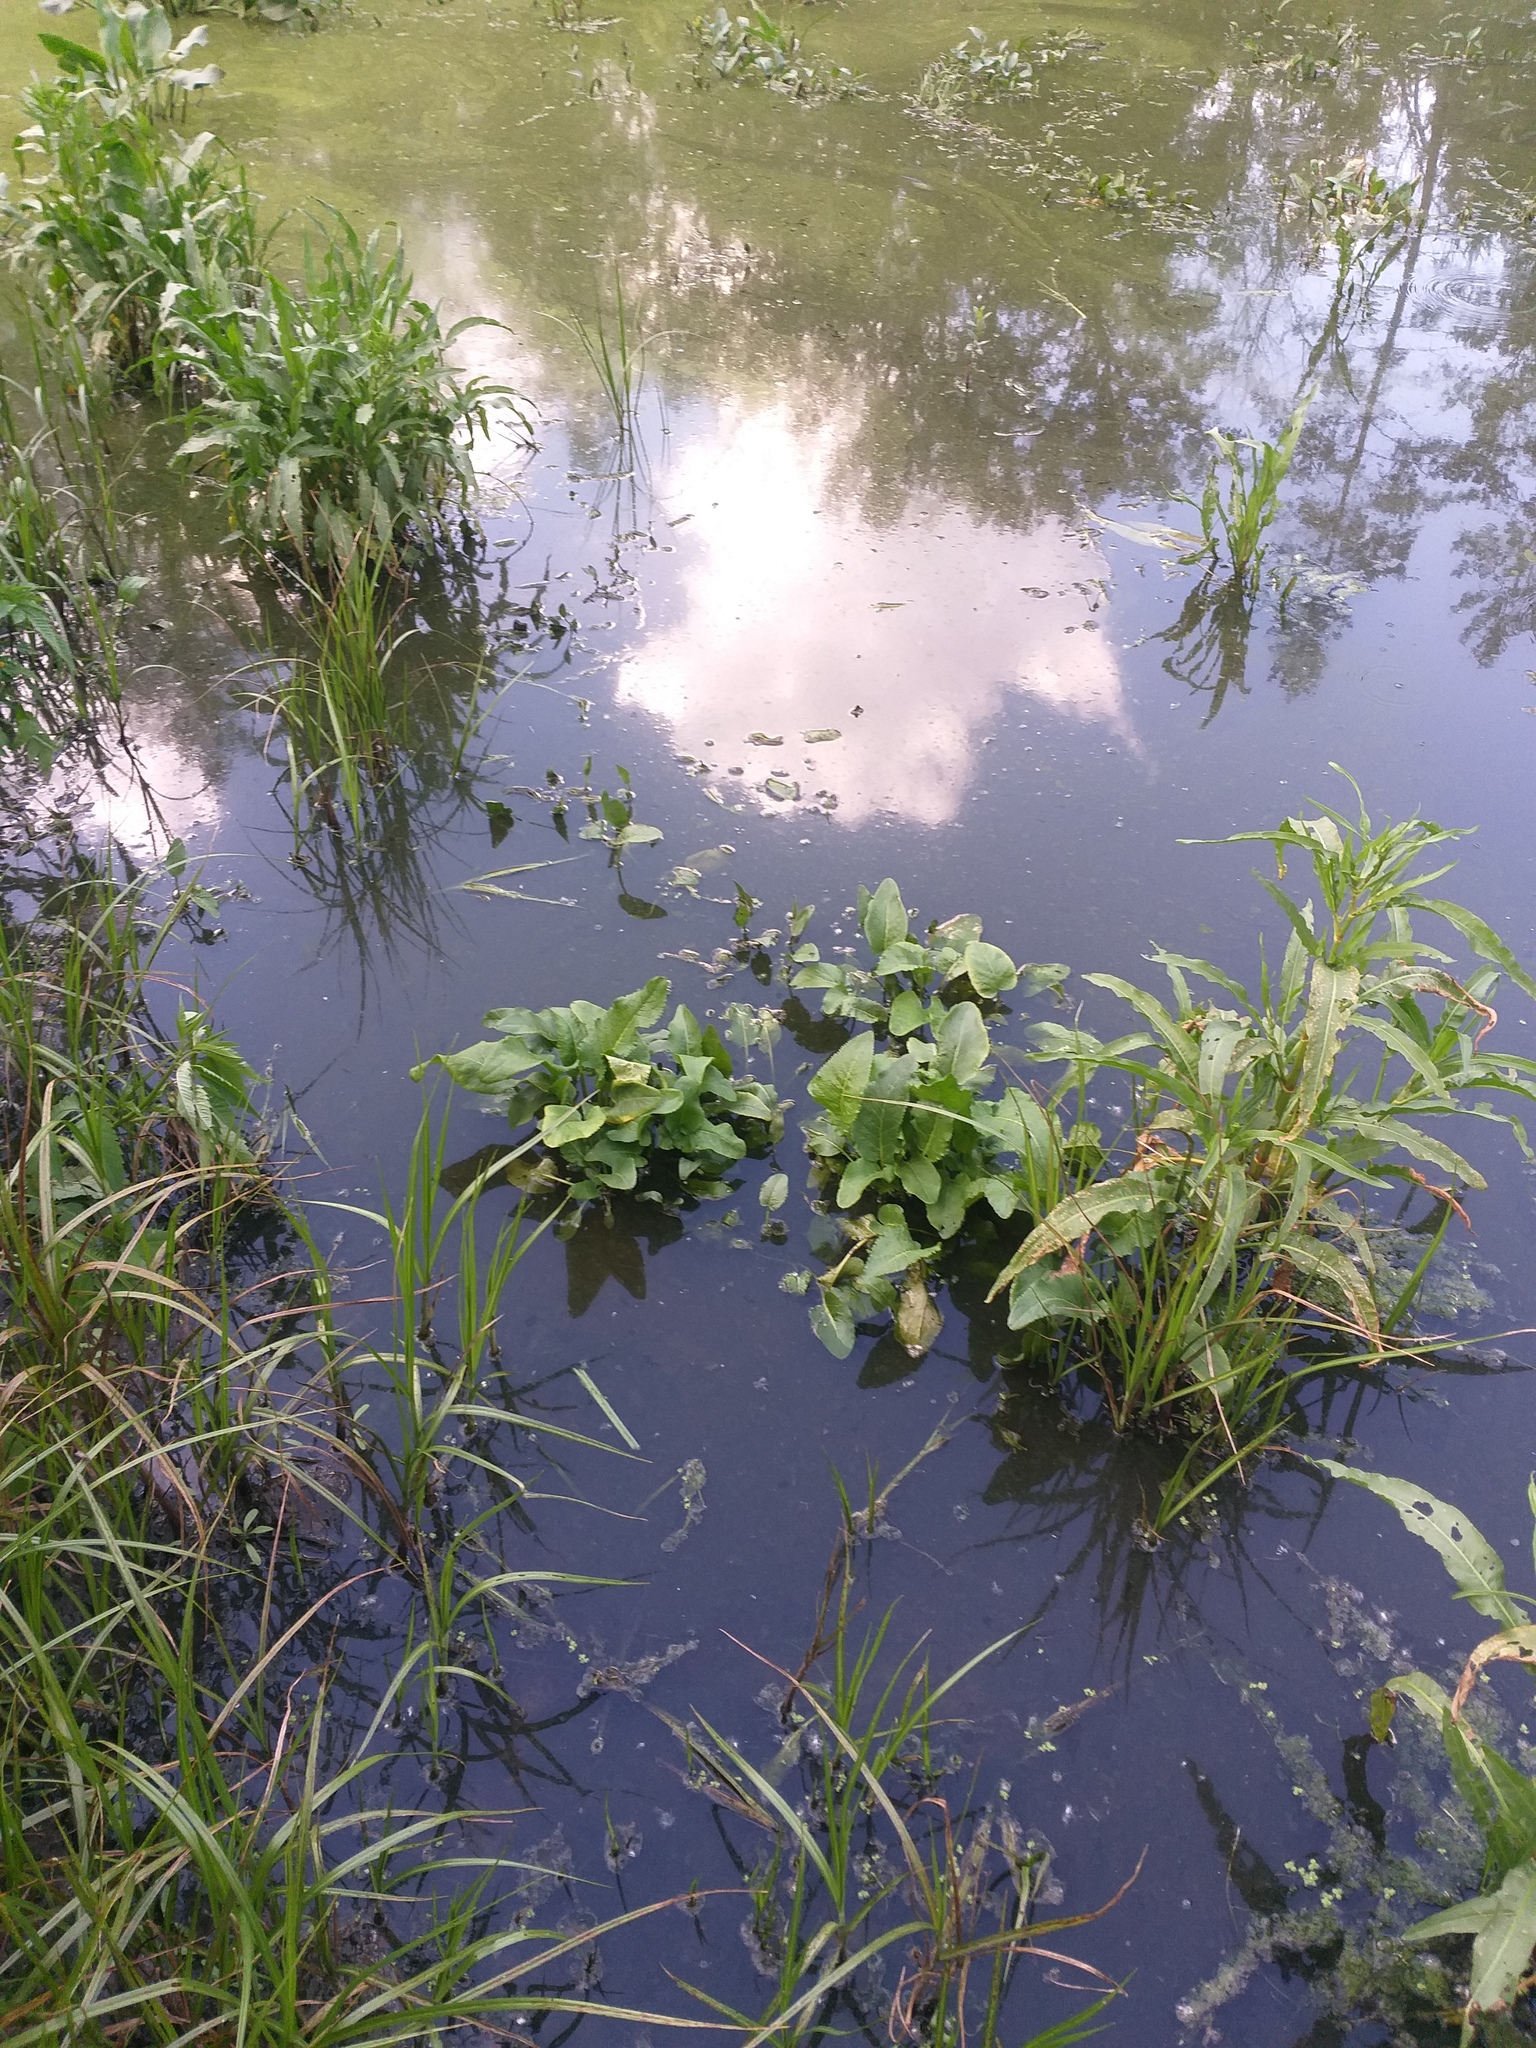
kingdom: Plantae
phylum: Tracheophyta
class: Magnoliopsida
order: Brassicales
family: Brassicaceae
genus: Rorippa
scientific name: Rorippa amphibia
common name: Great yellow-cress
